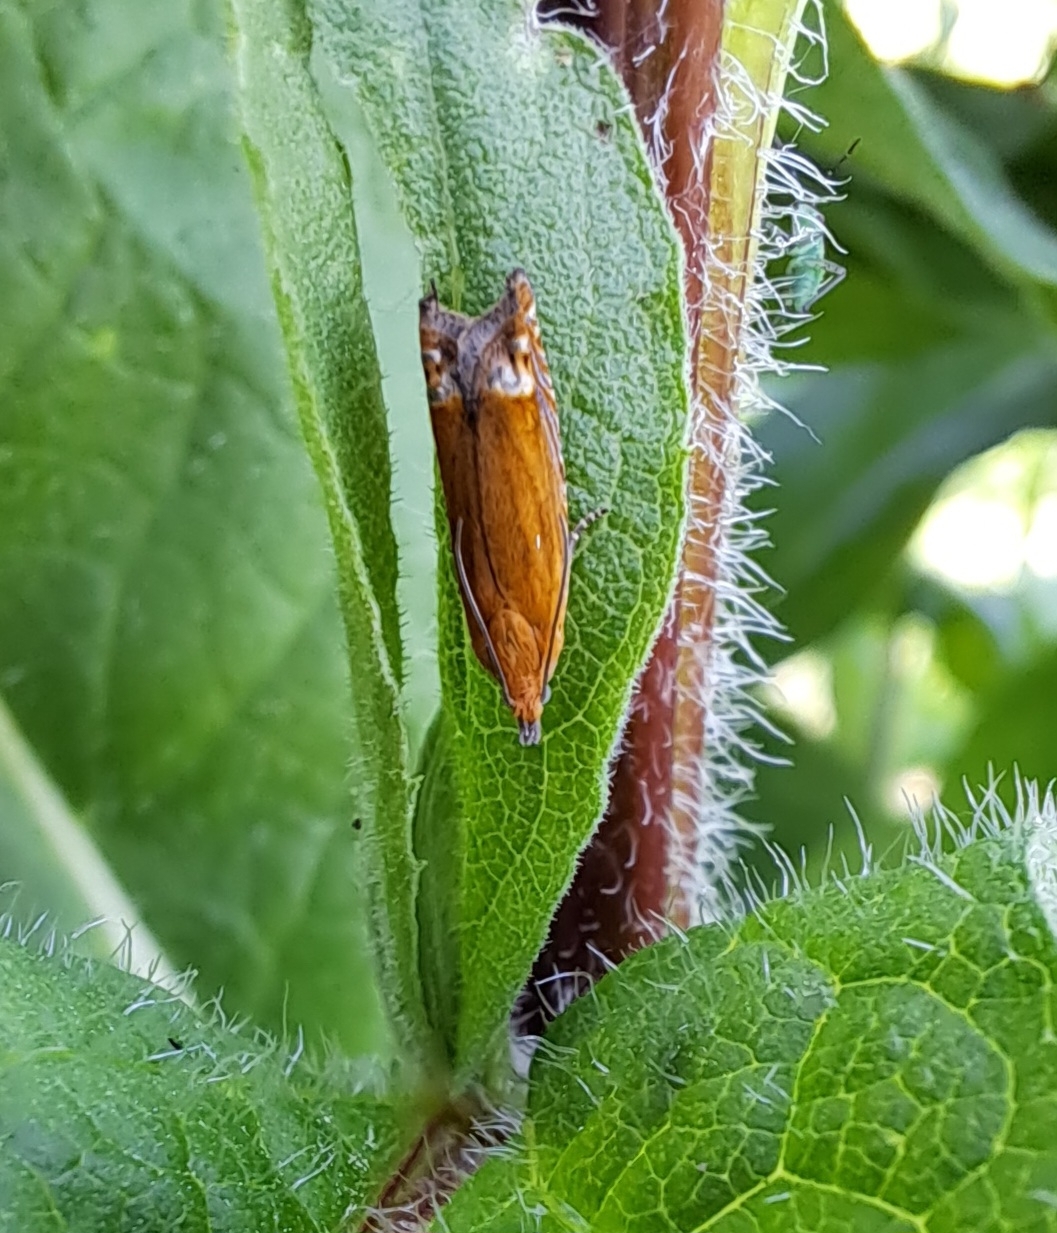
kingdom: Animalia
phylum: Arthropoda
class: Insecta
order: Lepidoptera
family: Tortricidae
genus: Lathronympha
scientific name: Lathronympha strigana
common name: Red piercer
